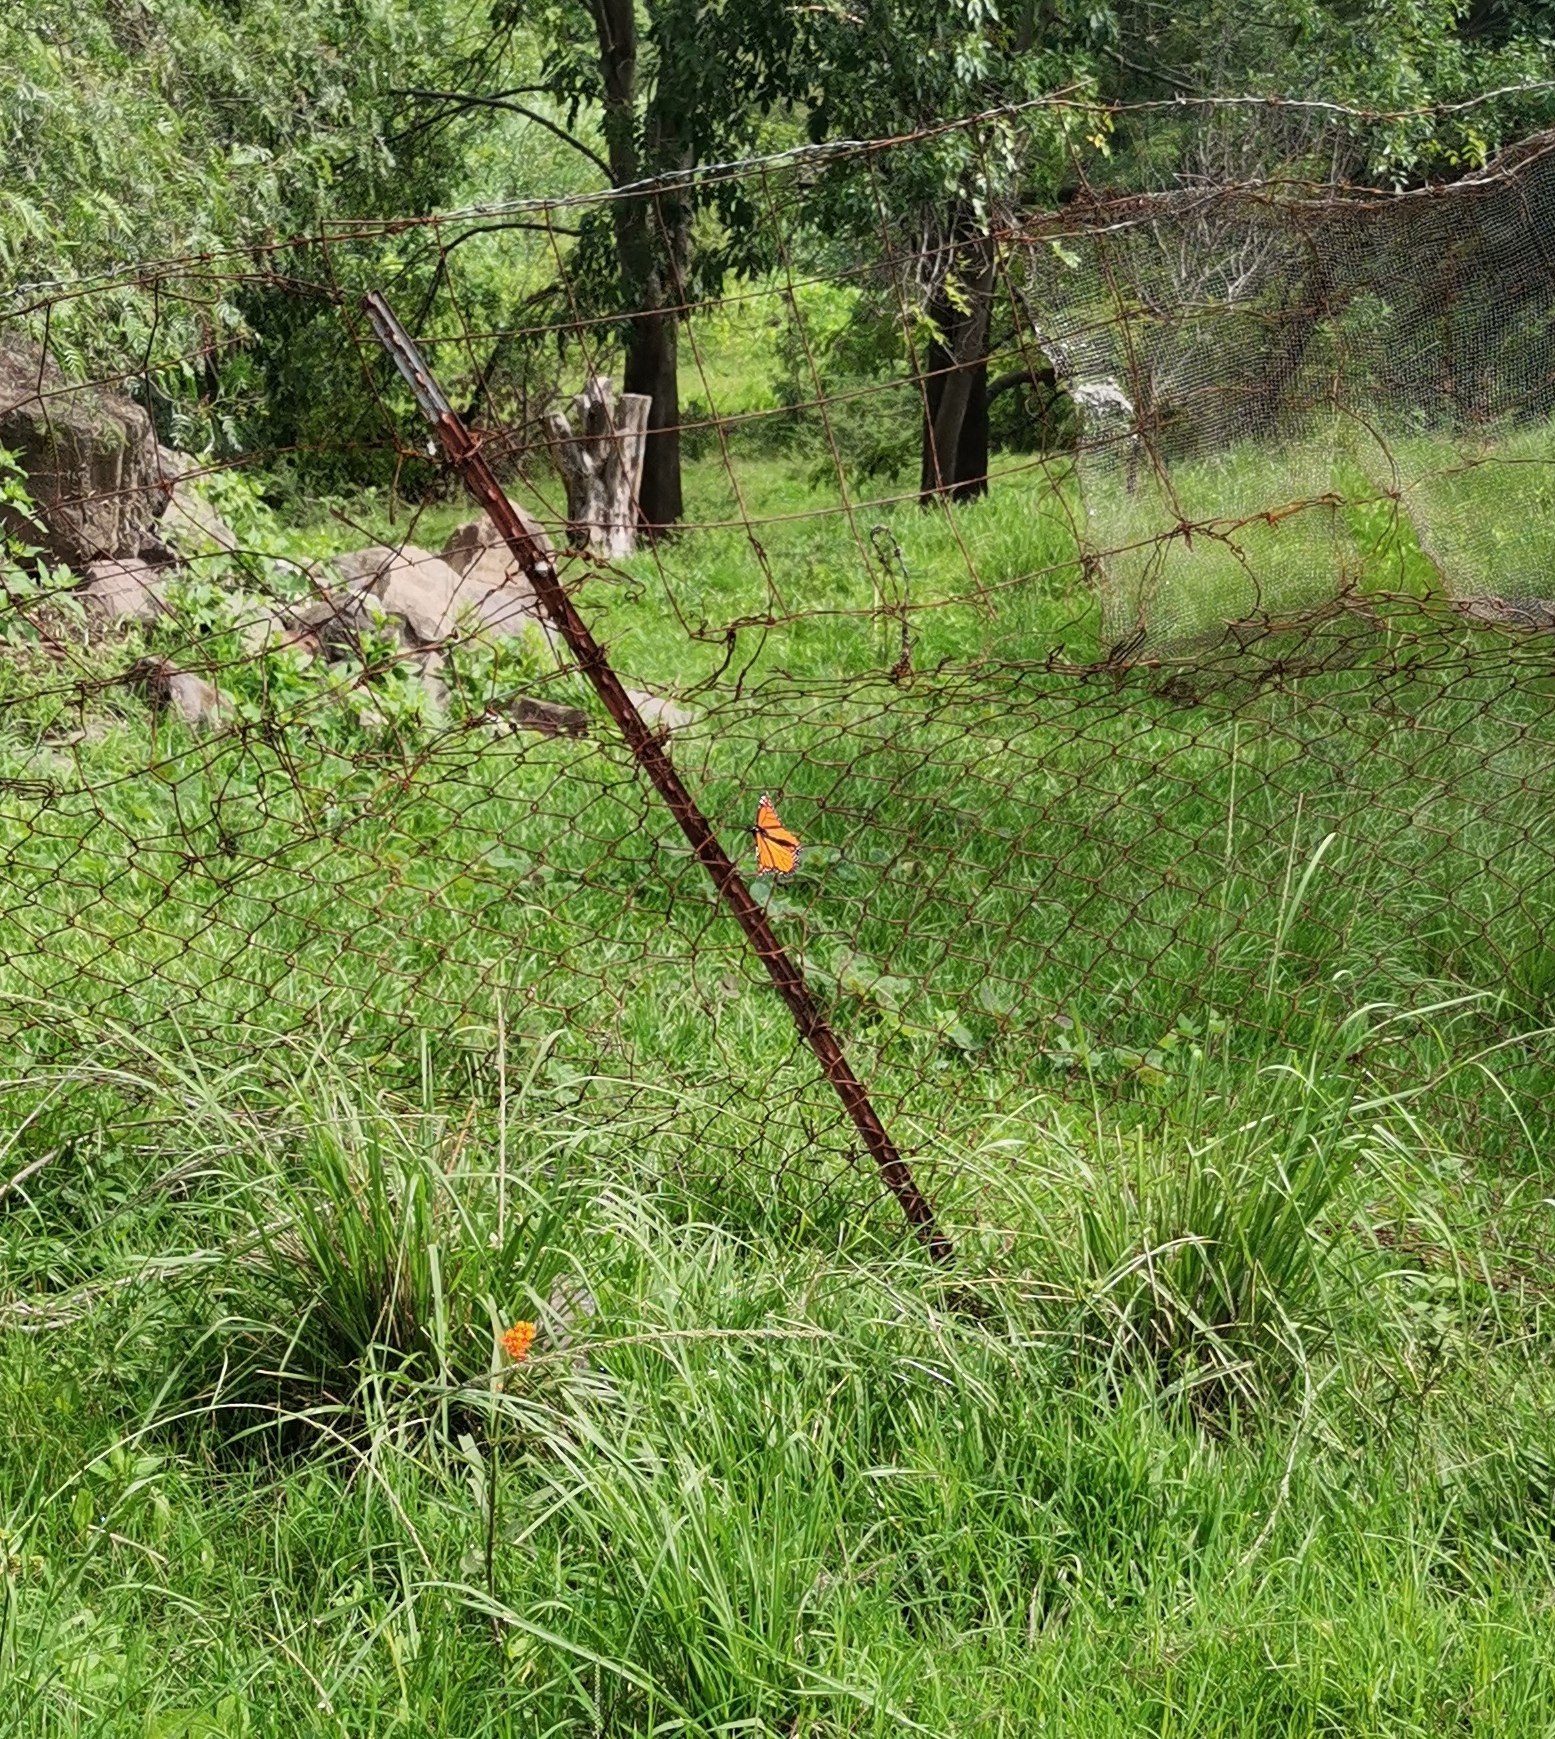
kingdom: Animalia
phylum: Arthropoda
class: Insecta
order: Lepidoptera
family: Nymphalidae
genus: Danaus
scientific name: Danaus plexippus
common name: Monarch
